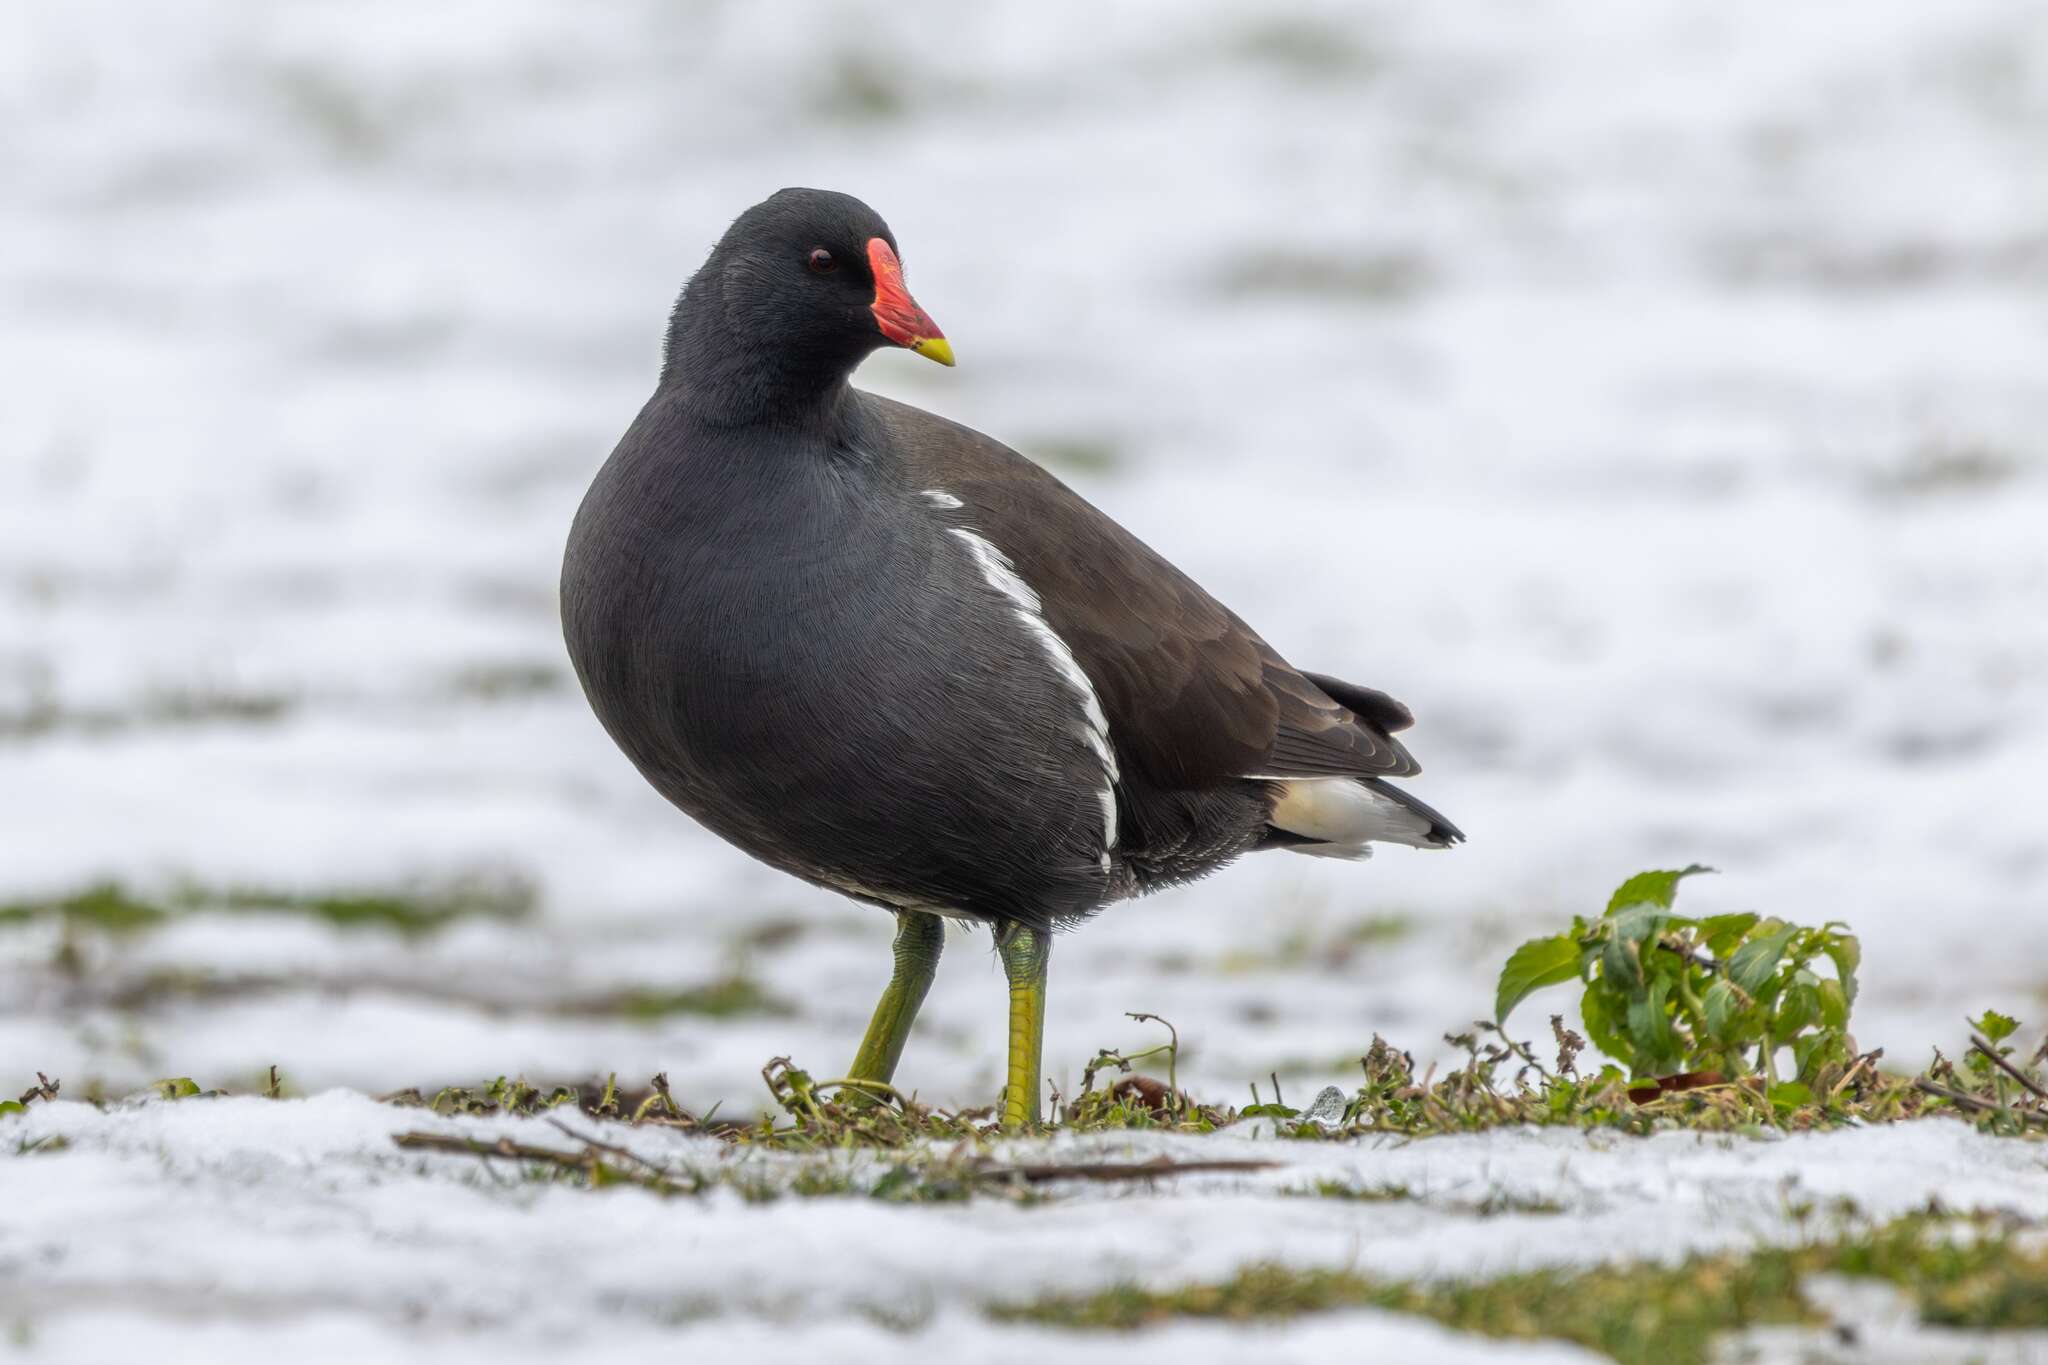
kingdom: Animalia
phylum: Chordata
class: Aves
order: Gruiformes
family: Rallidae
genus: Gallinula
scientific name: Gallinula chloropus
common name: Common moorhen
